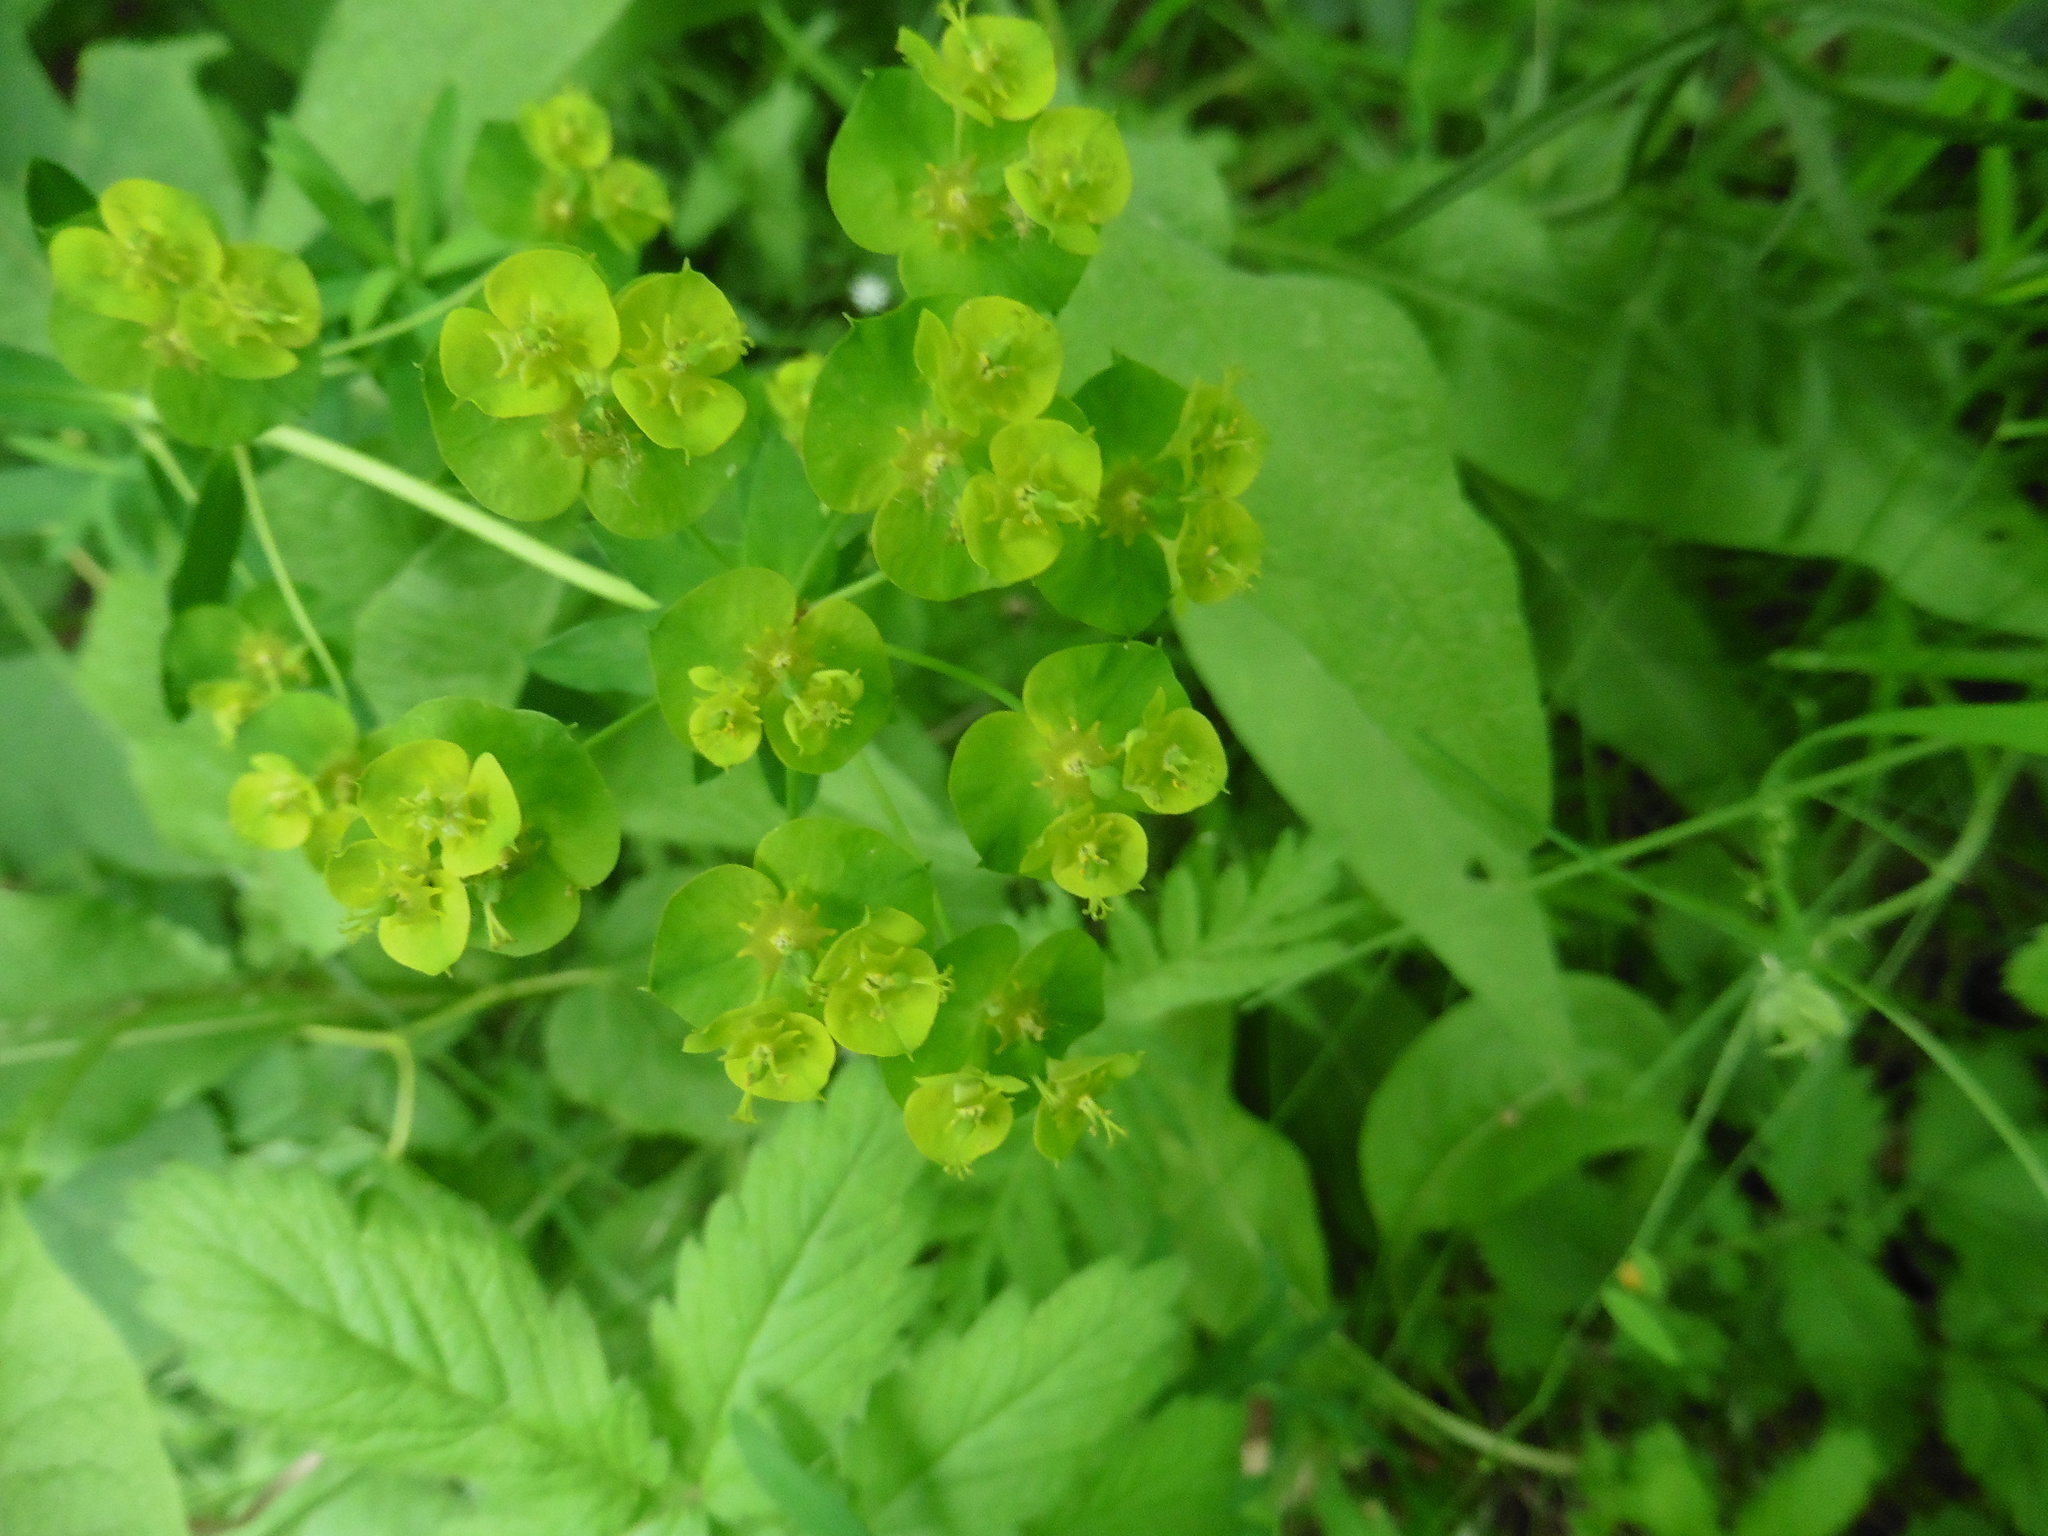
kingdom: Plantae
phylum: Tracheophyta
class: Magnoliopsida
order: Malpighiales
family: Euphorbiaceae
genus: Euphorbia
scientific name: Euphorbia virgata
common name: Leafy spurge
